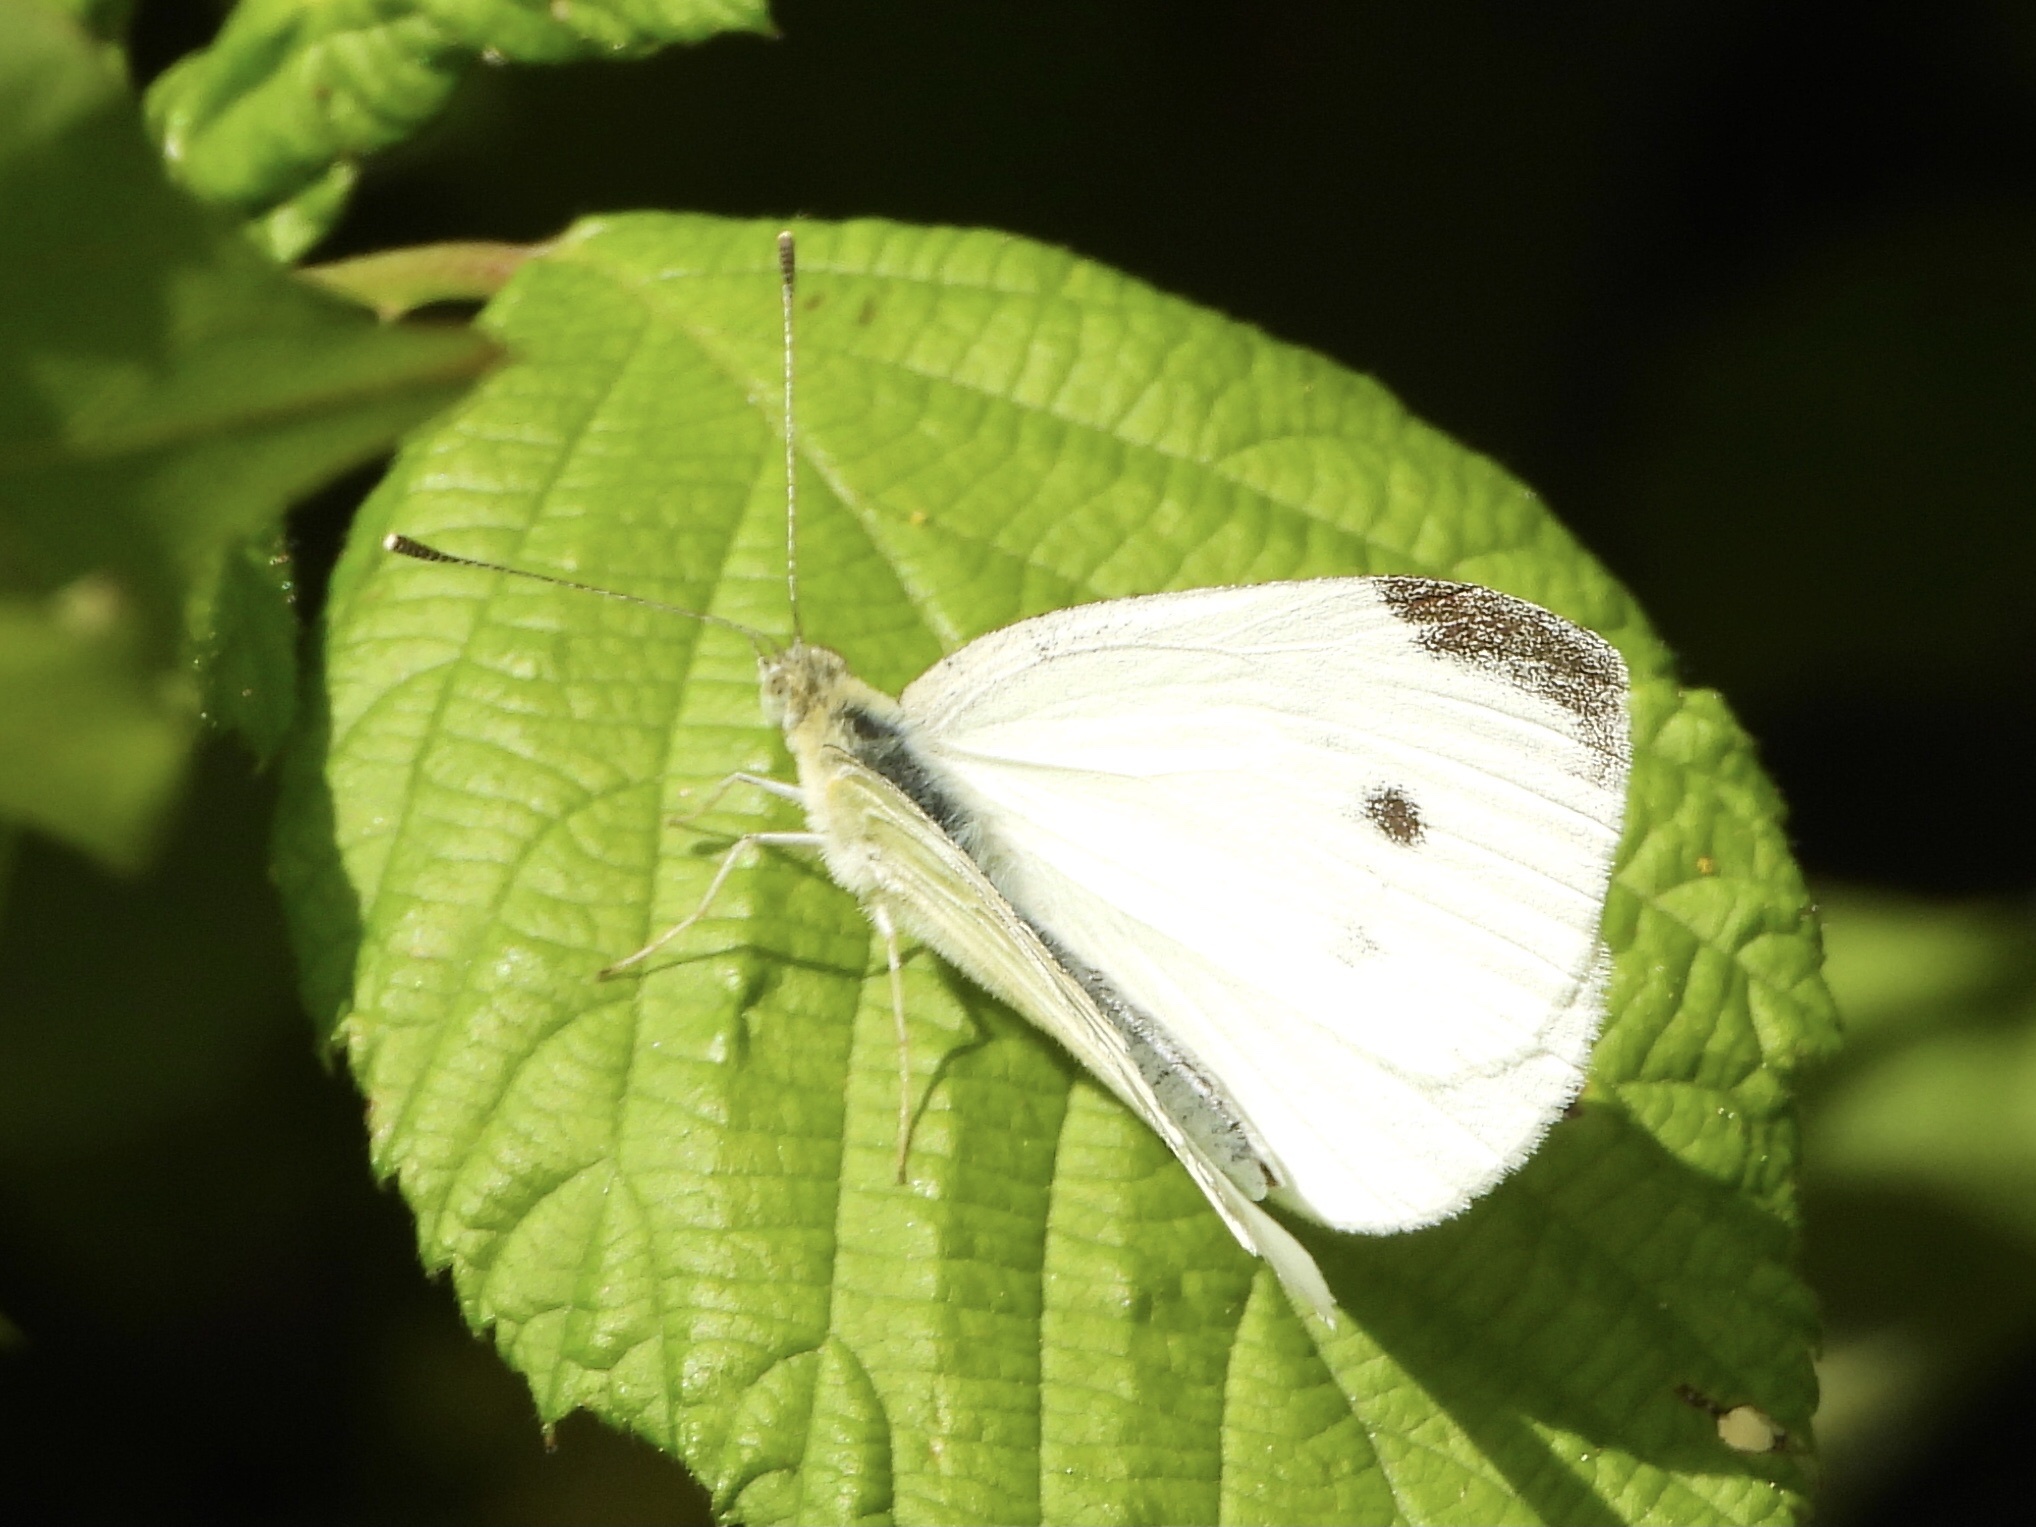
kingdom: Animalia
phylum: Arthropoda
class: Insecta
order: Lepidoptera
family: Pieridae
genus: Pieris
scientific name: Pieris rapae
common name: Small white
